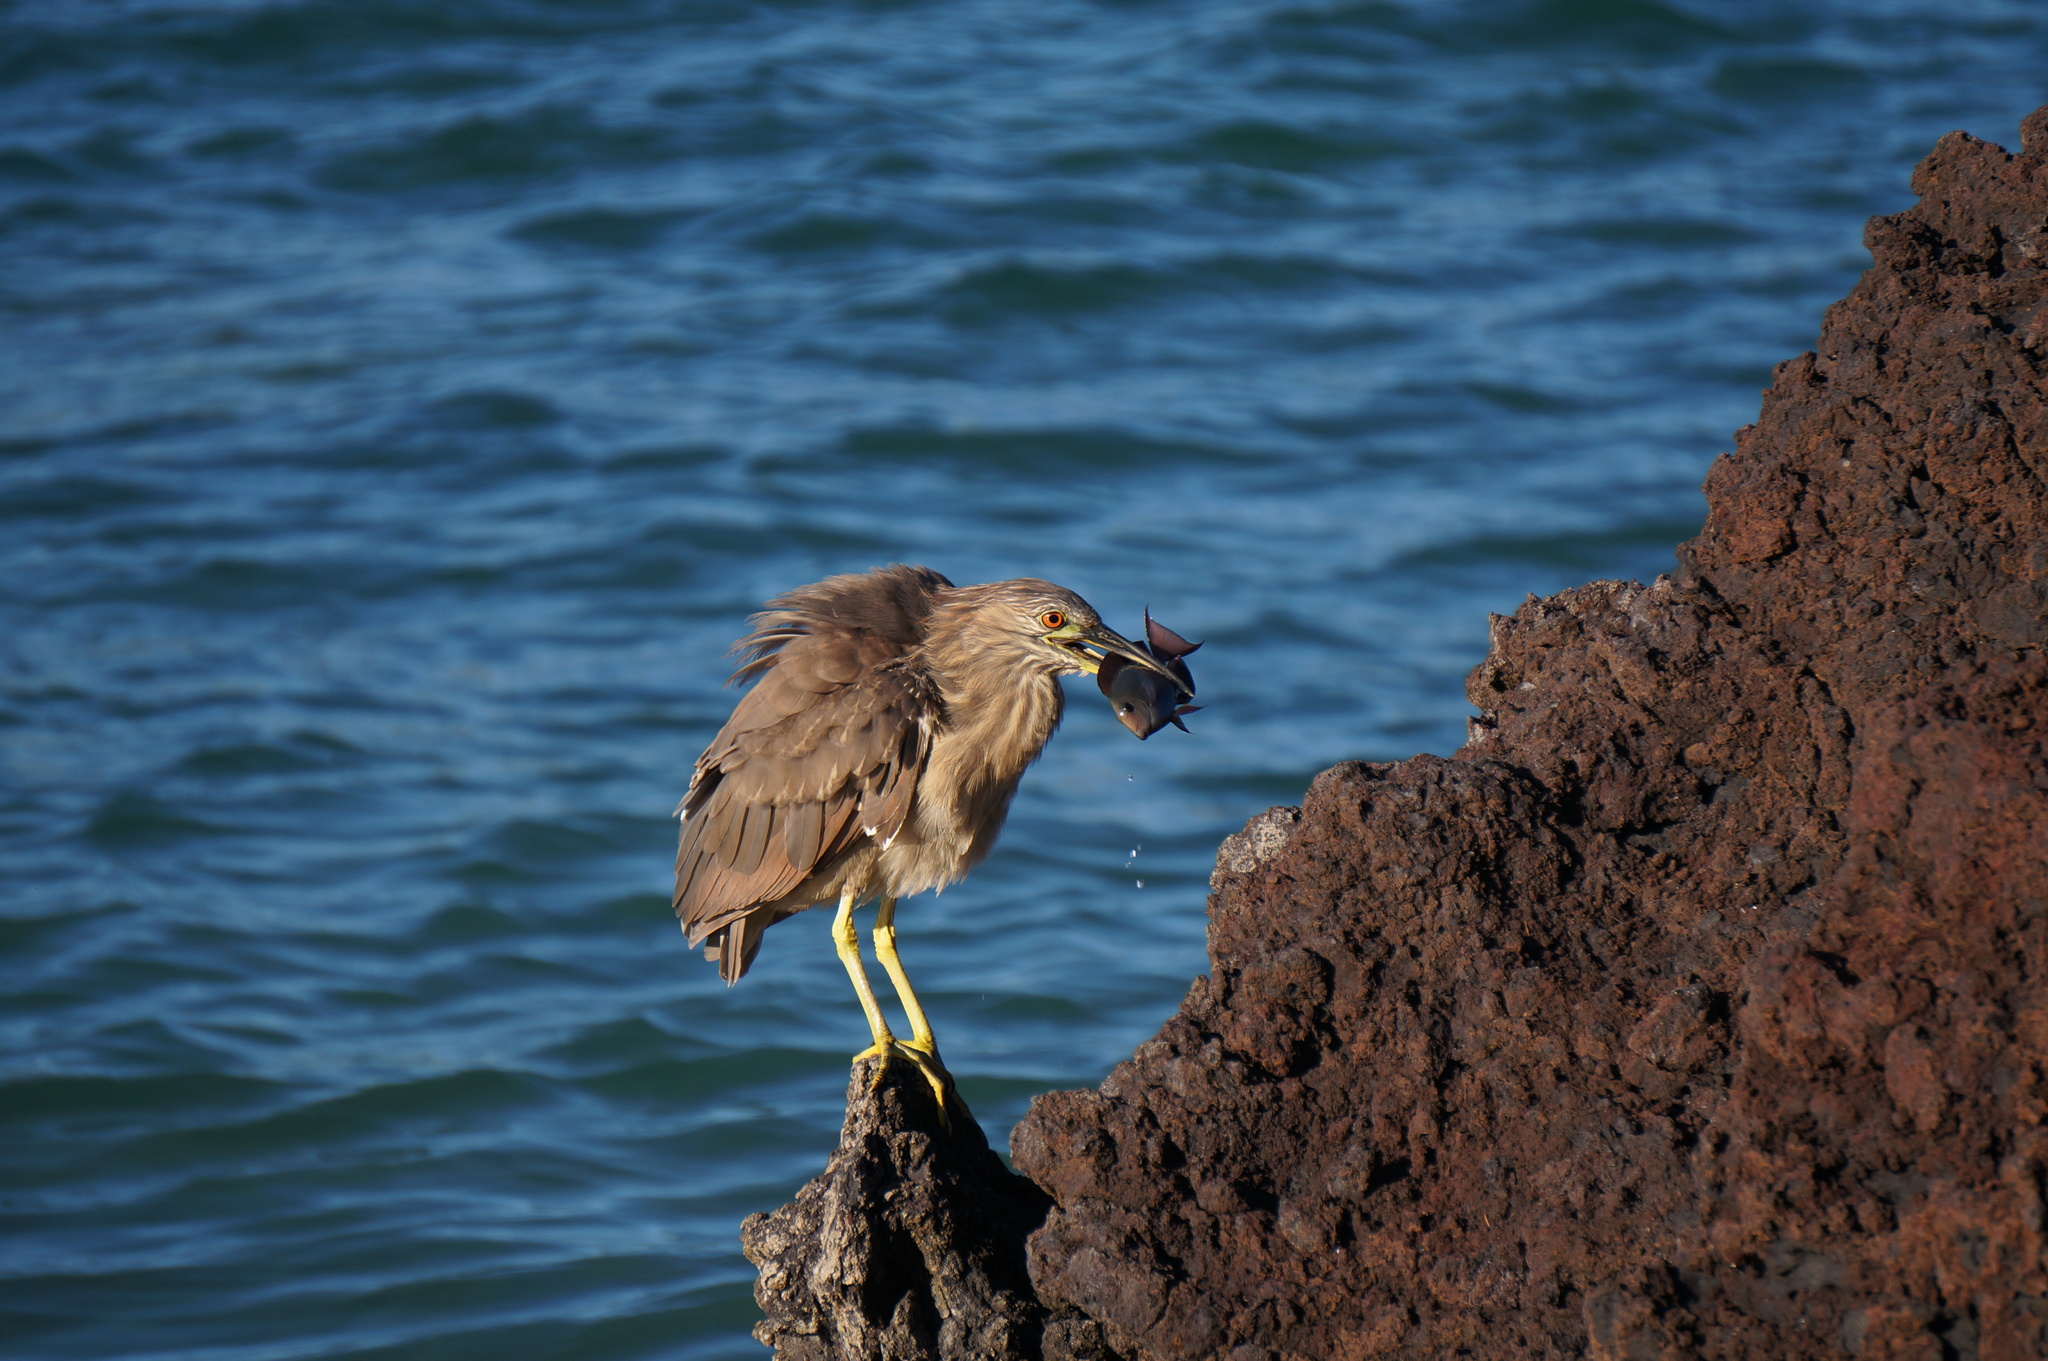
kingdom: Animalia
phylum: Chordata
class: Aves
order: Pelecaniformes
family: Ardeidae
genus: Nycticorax
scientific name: Nycticorax nycticorax
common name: Black-crowned night heron
